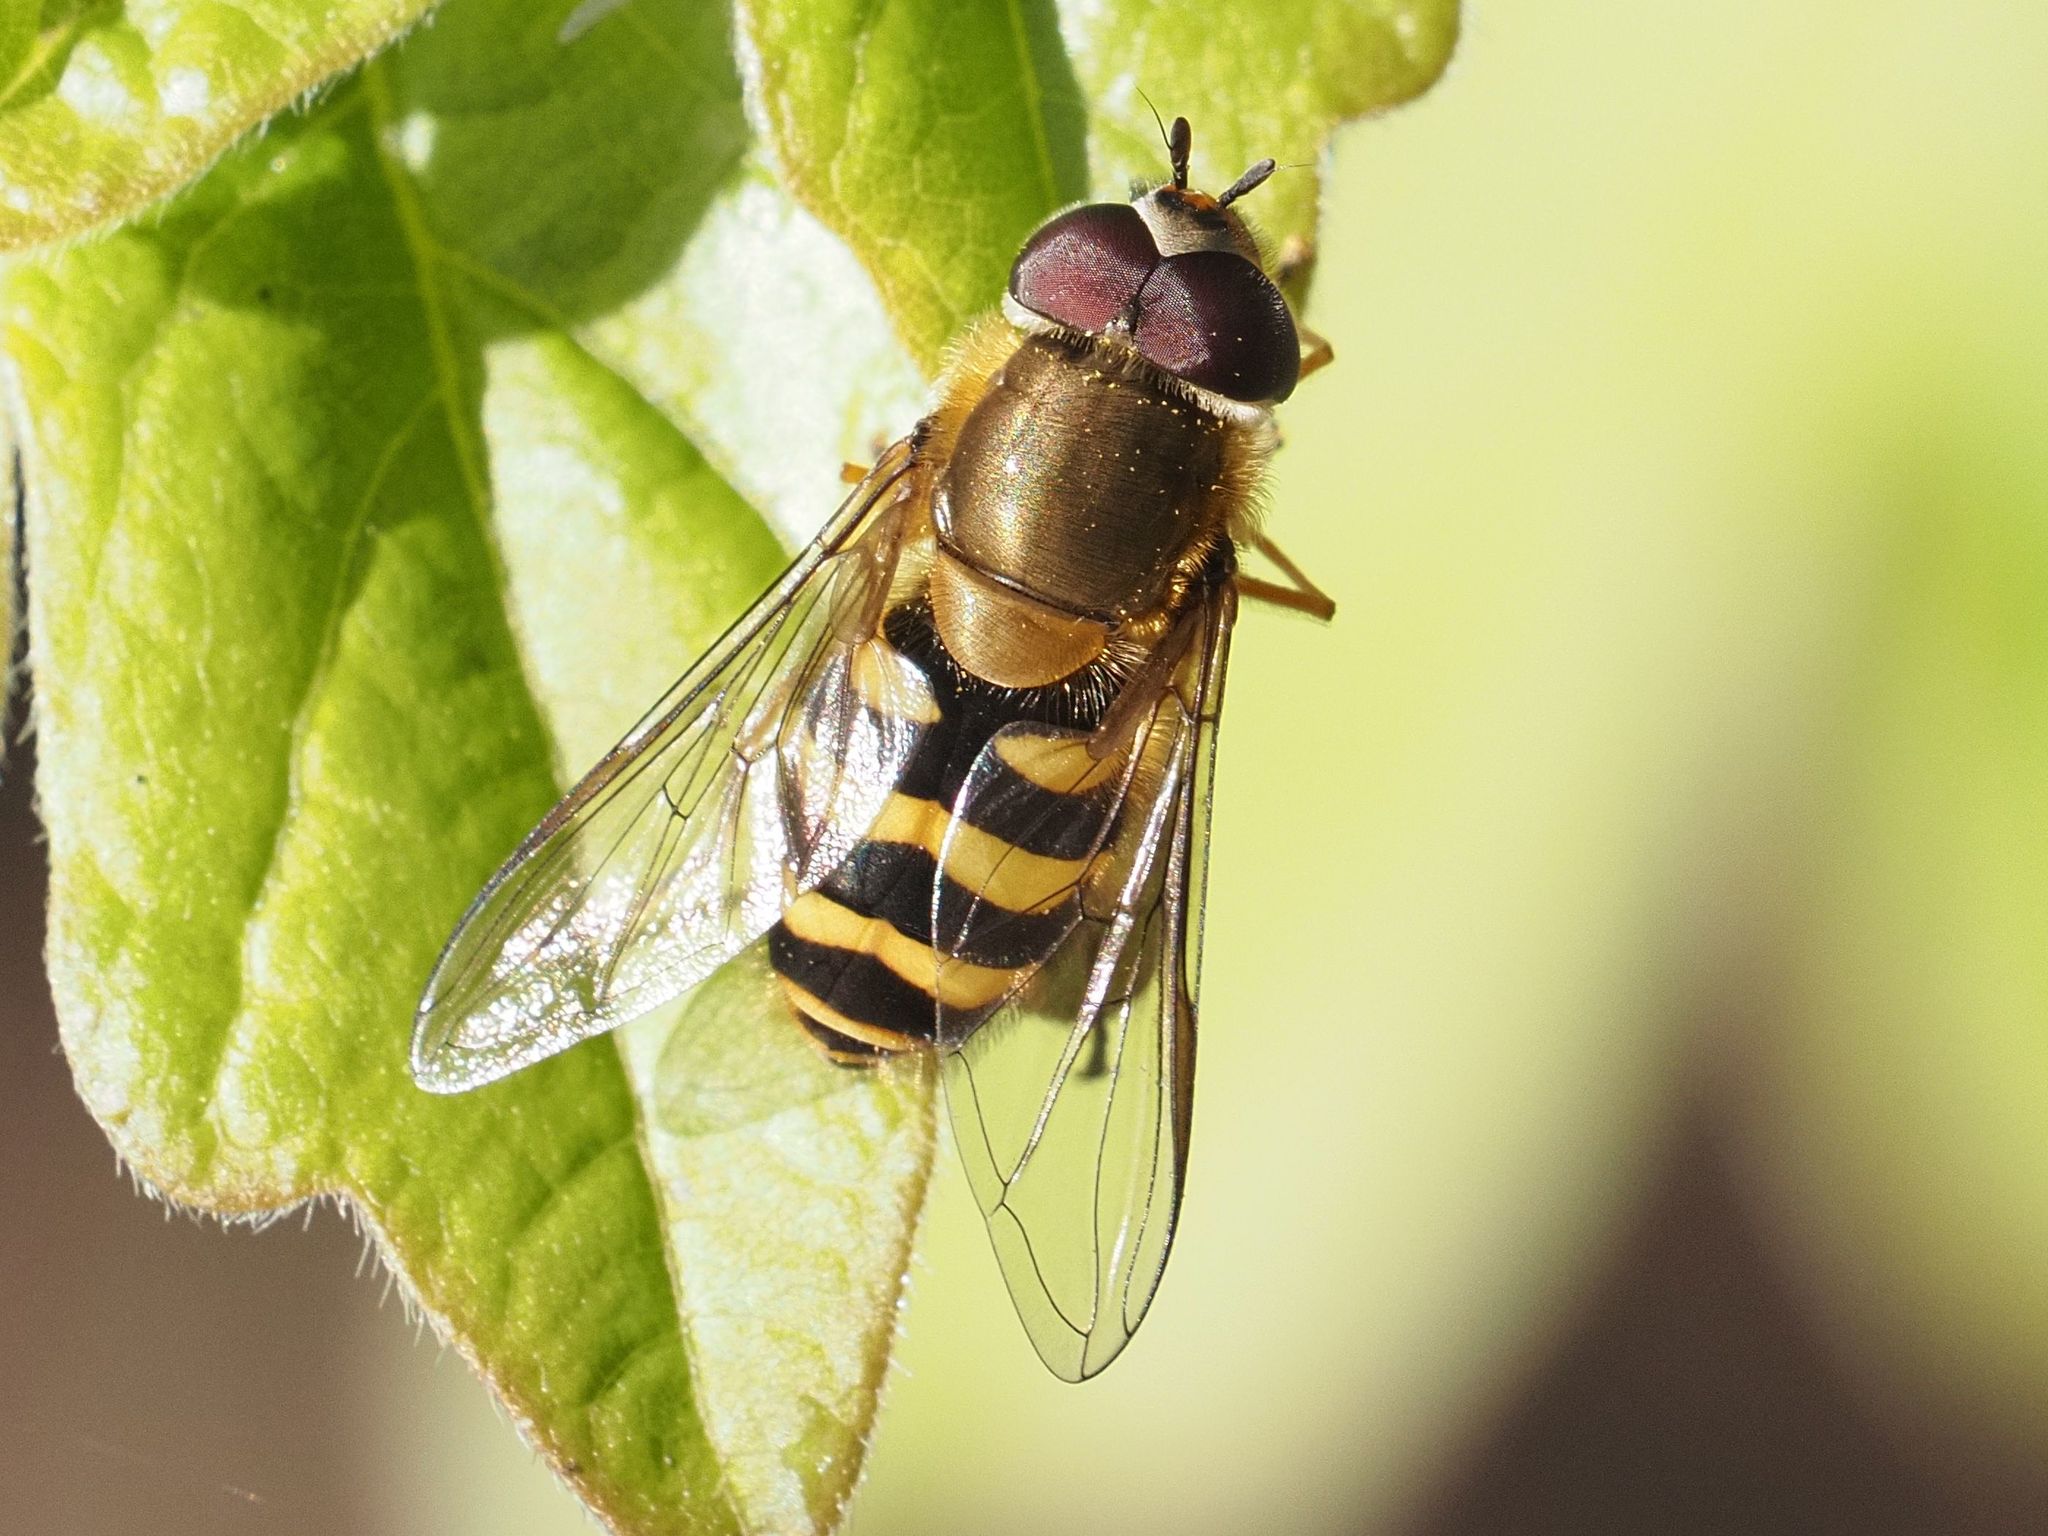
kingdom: Animalia
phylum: Arthropoda
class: Insecta
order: Diptera
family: Syrphidae
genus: Syrphus
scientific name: Syrphus torvus
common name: Hairy-eyed flower fly
